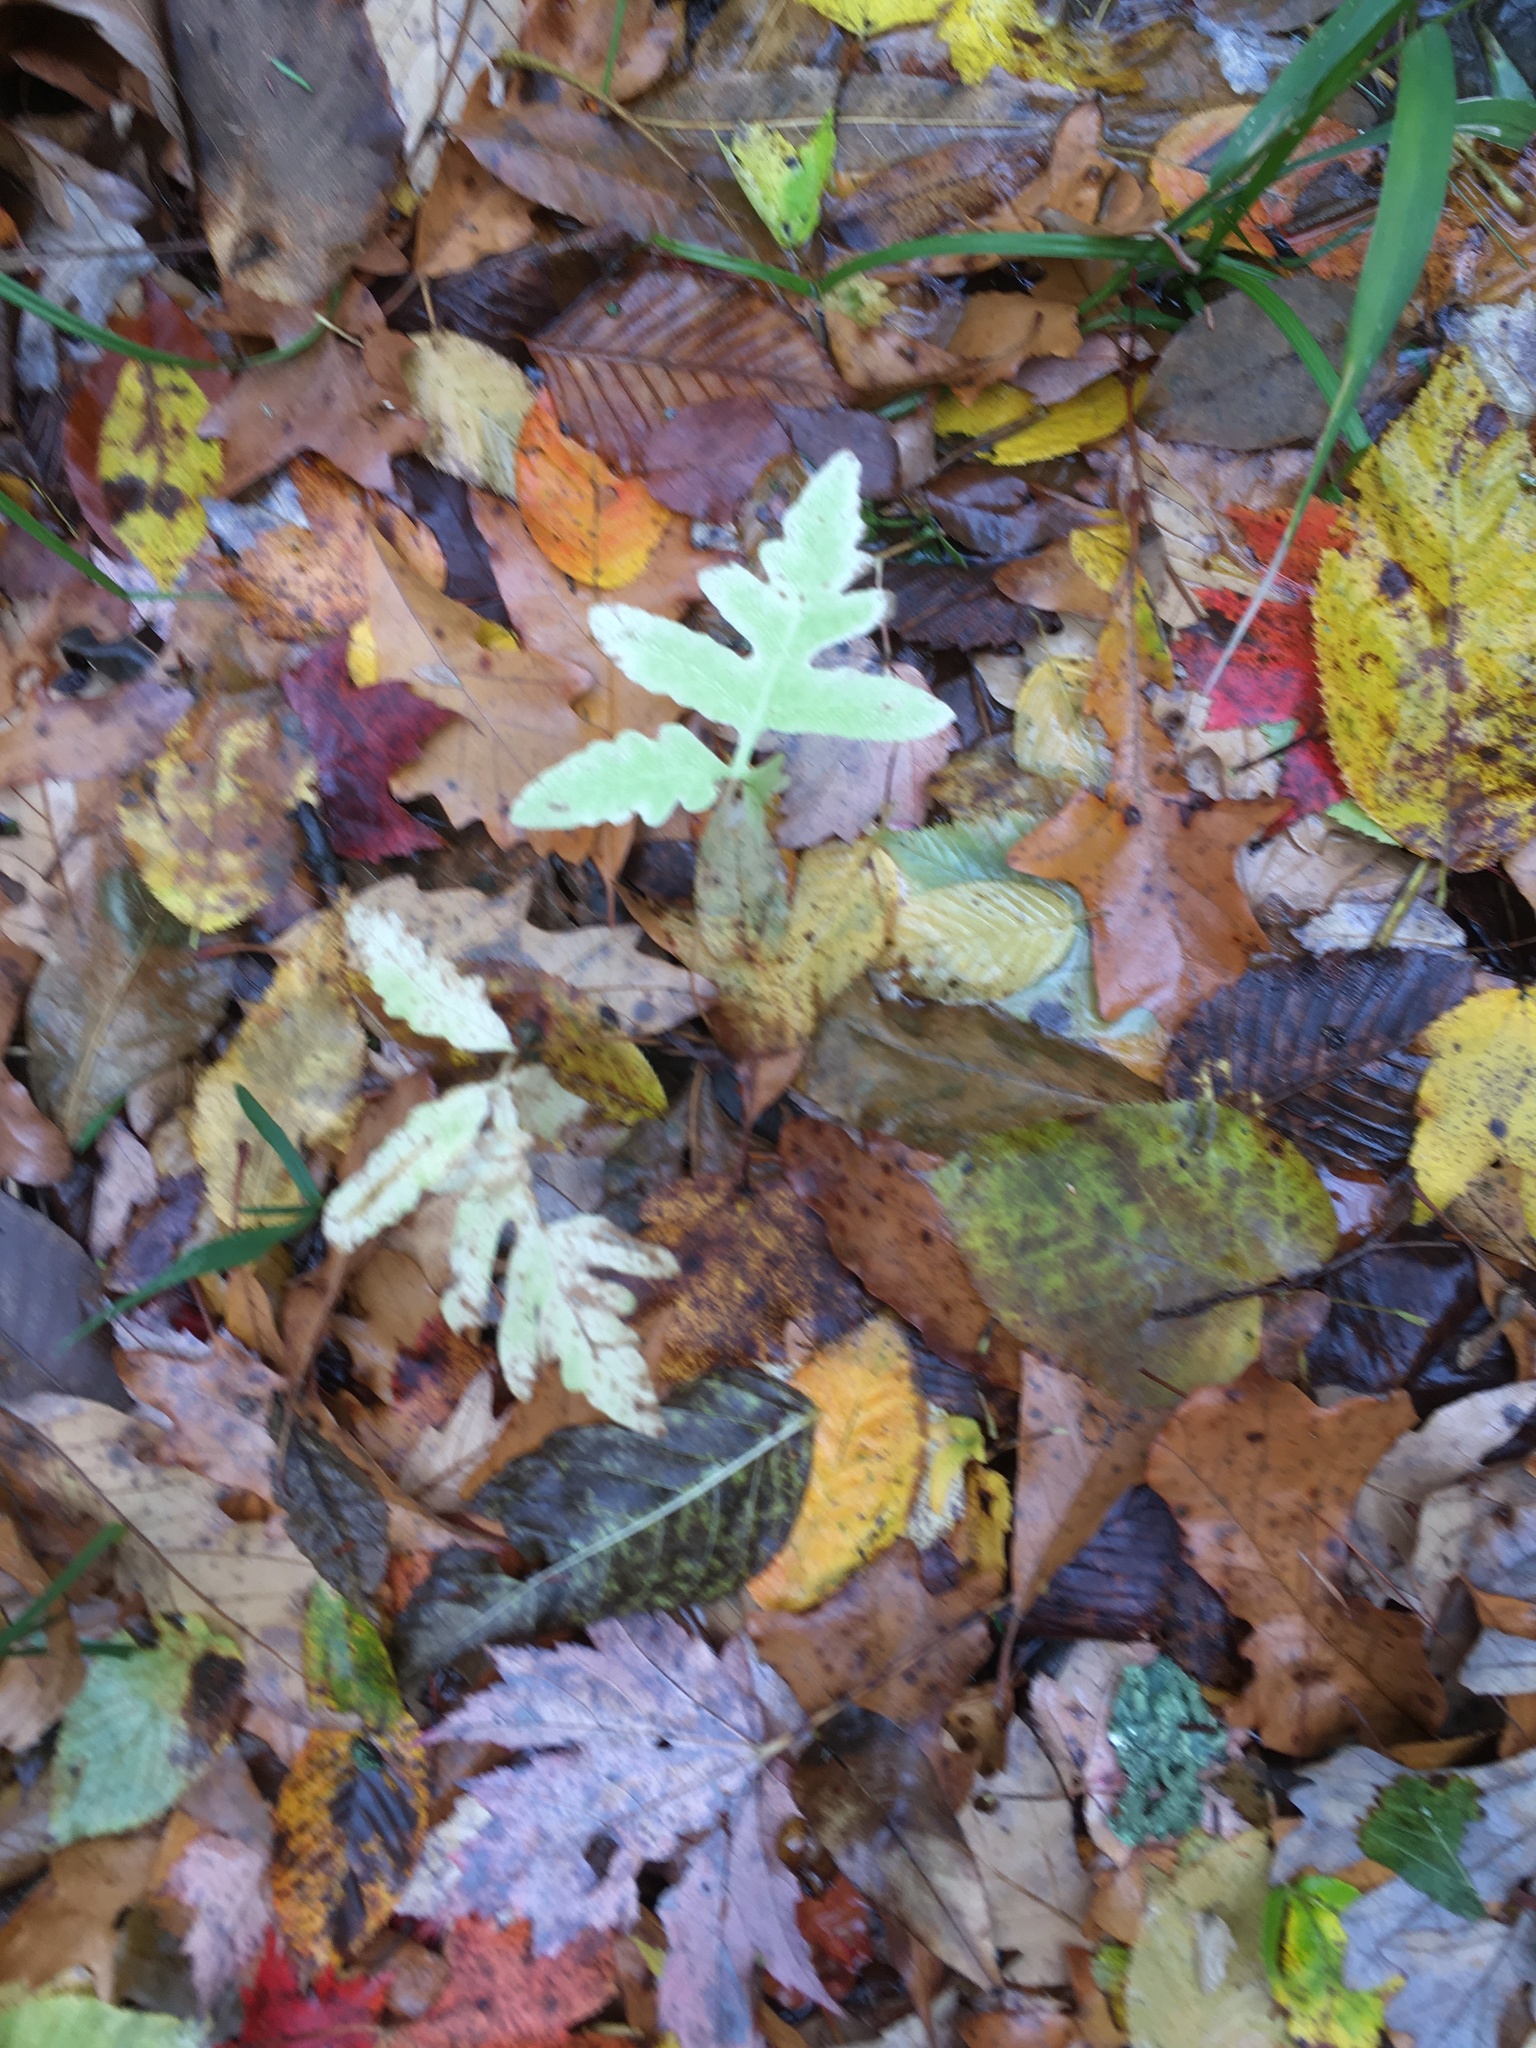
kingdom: Plantae
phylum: Tracheophyta
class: Polypodiopsida
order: Polypodiales
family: Onocleaceae
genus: Onoclea
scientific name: Onoclea sensibilis
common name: Sensitive fern
